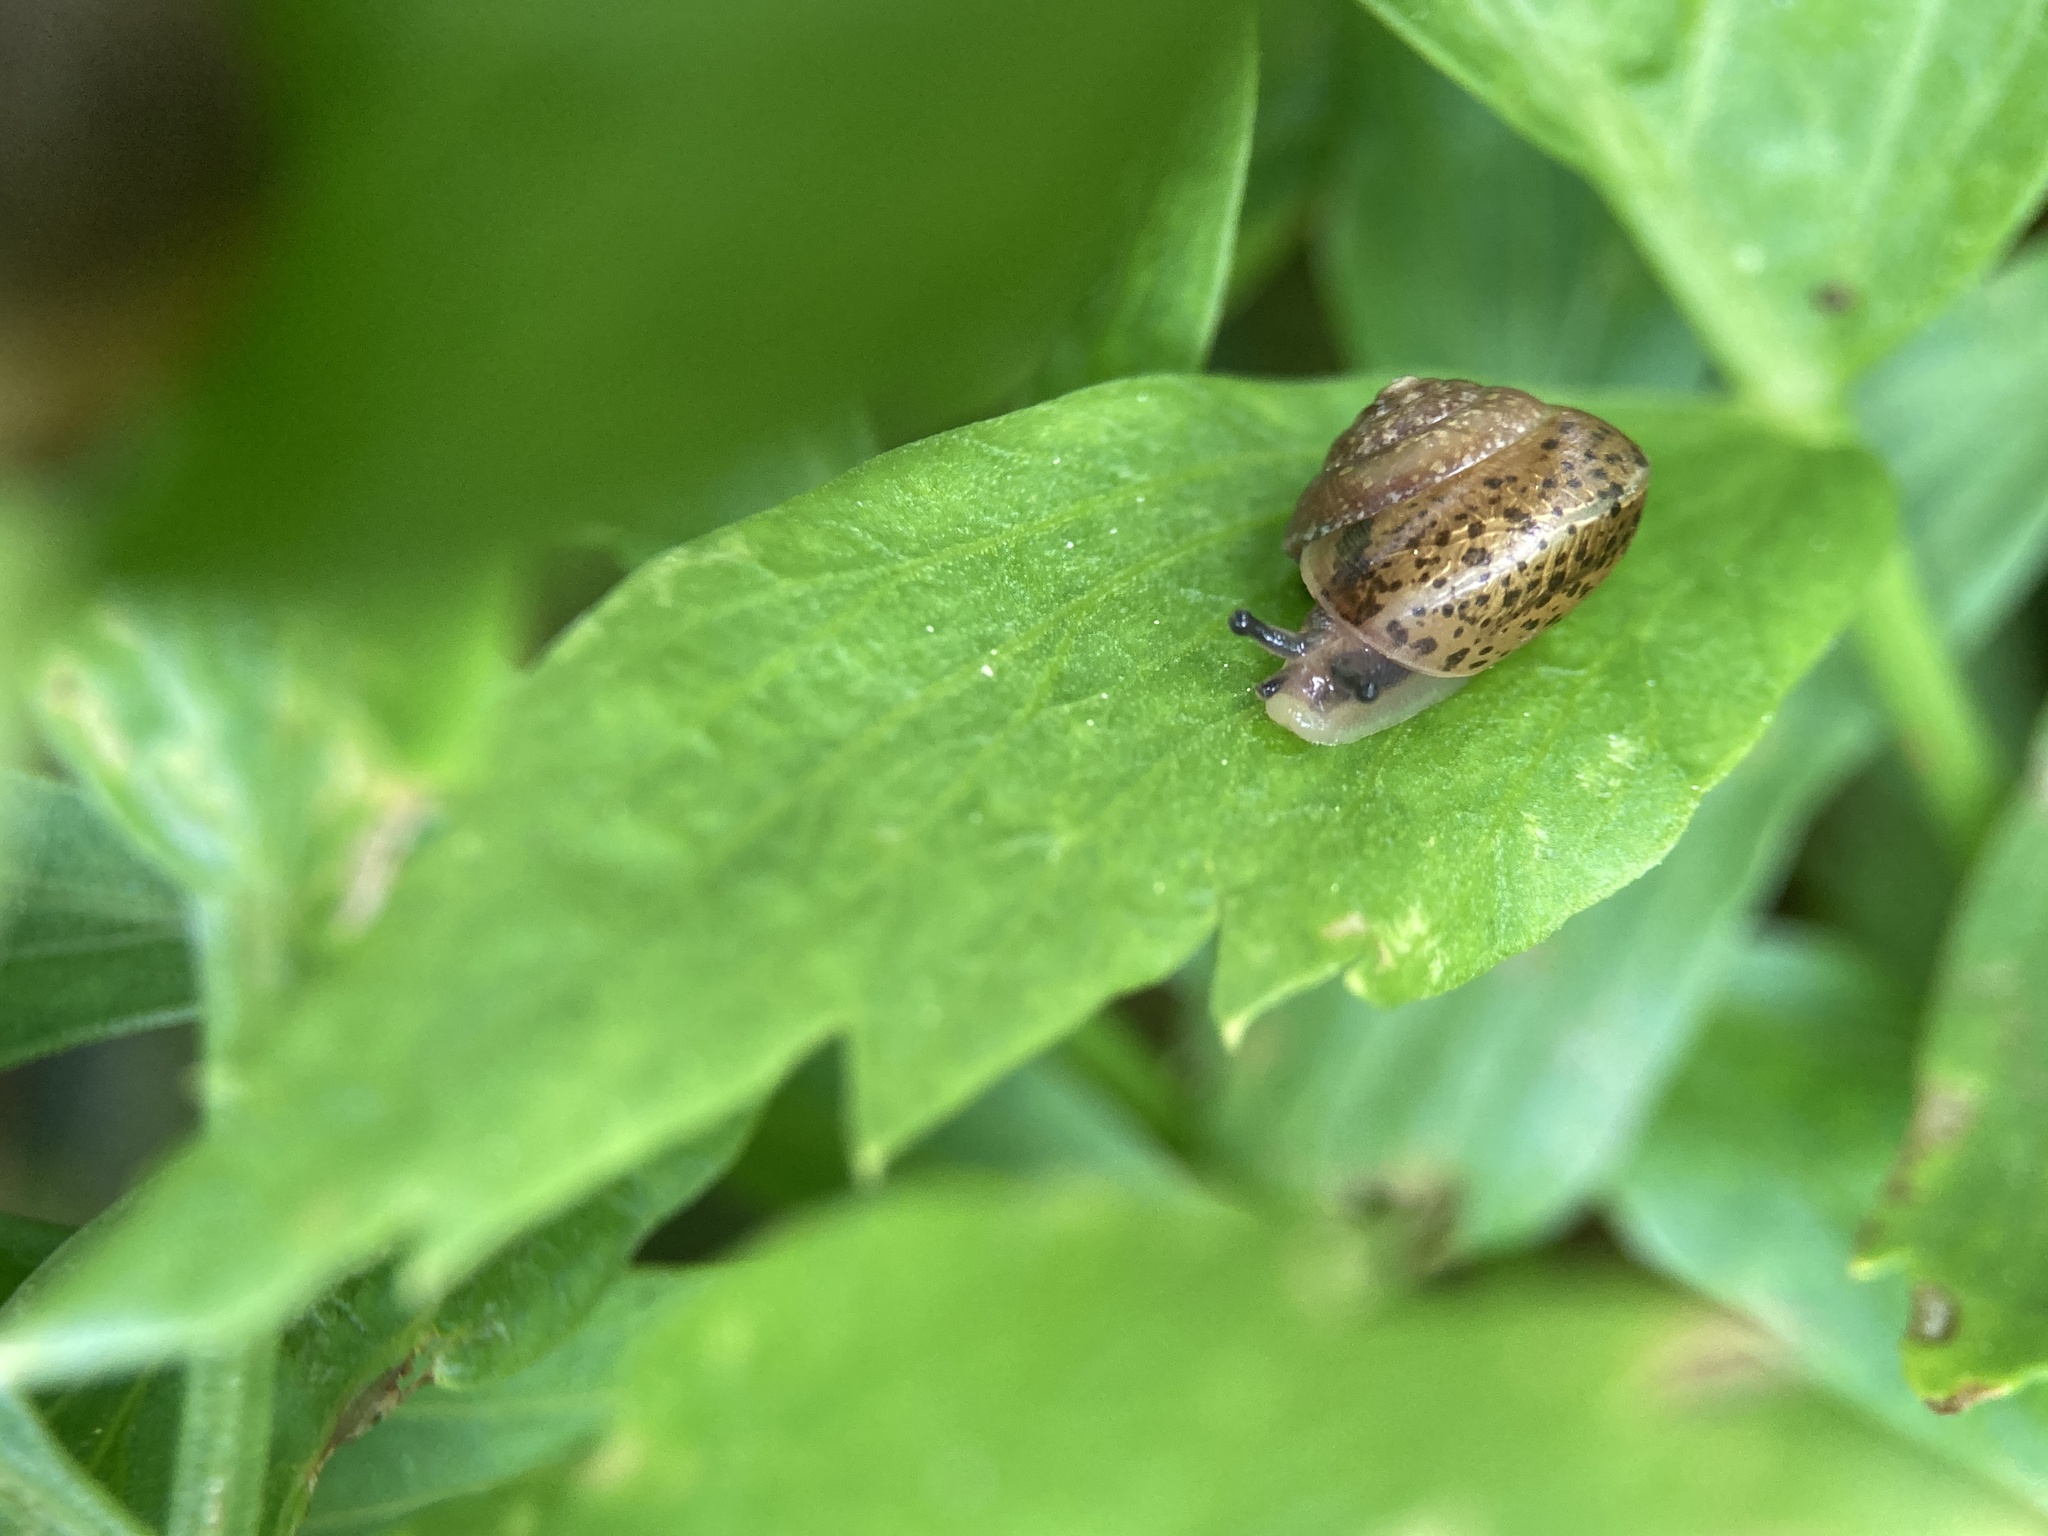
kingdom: Animalia
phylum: Mollusca
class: Gastropoda
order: Stylommatophora
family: Hygromiidae
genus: Hygromia
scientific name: Hygromia cinctella
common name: Girdled snail
